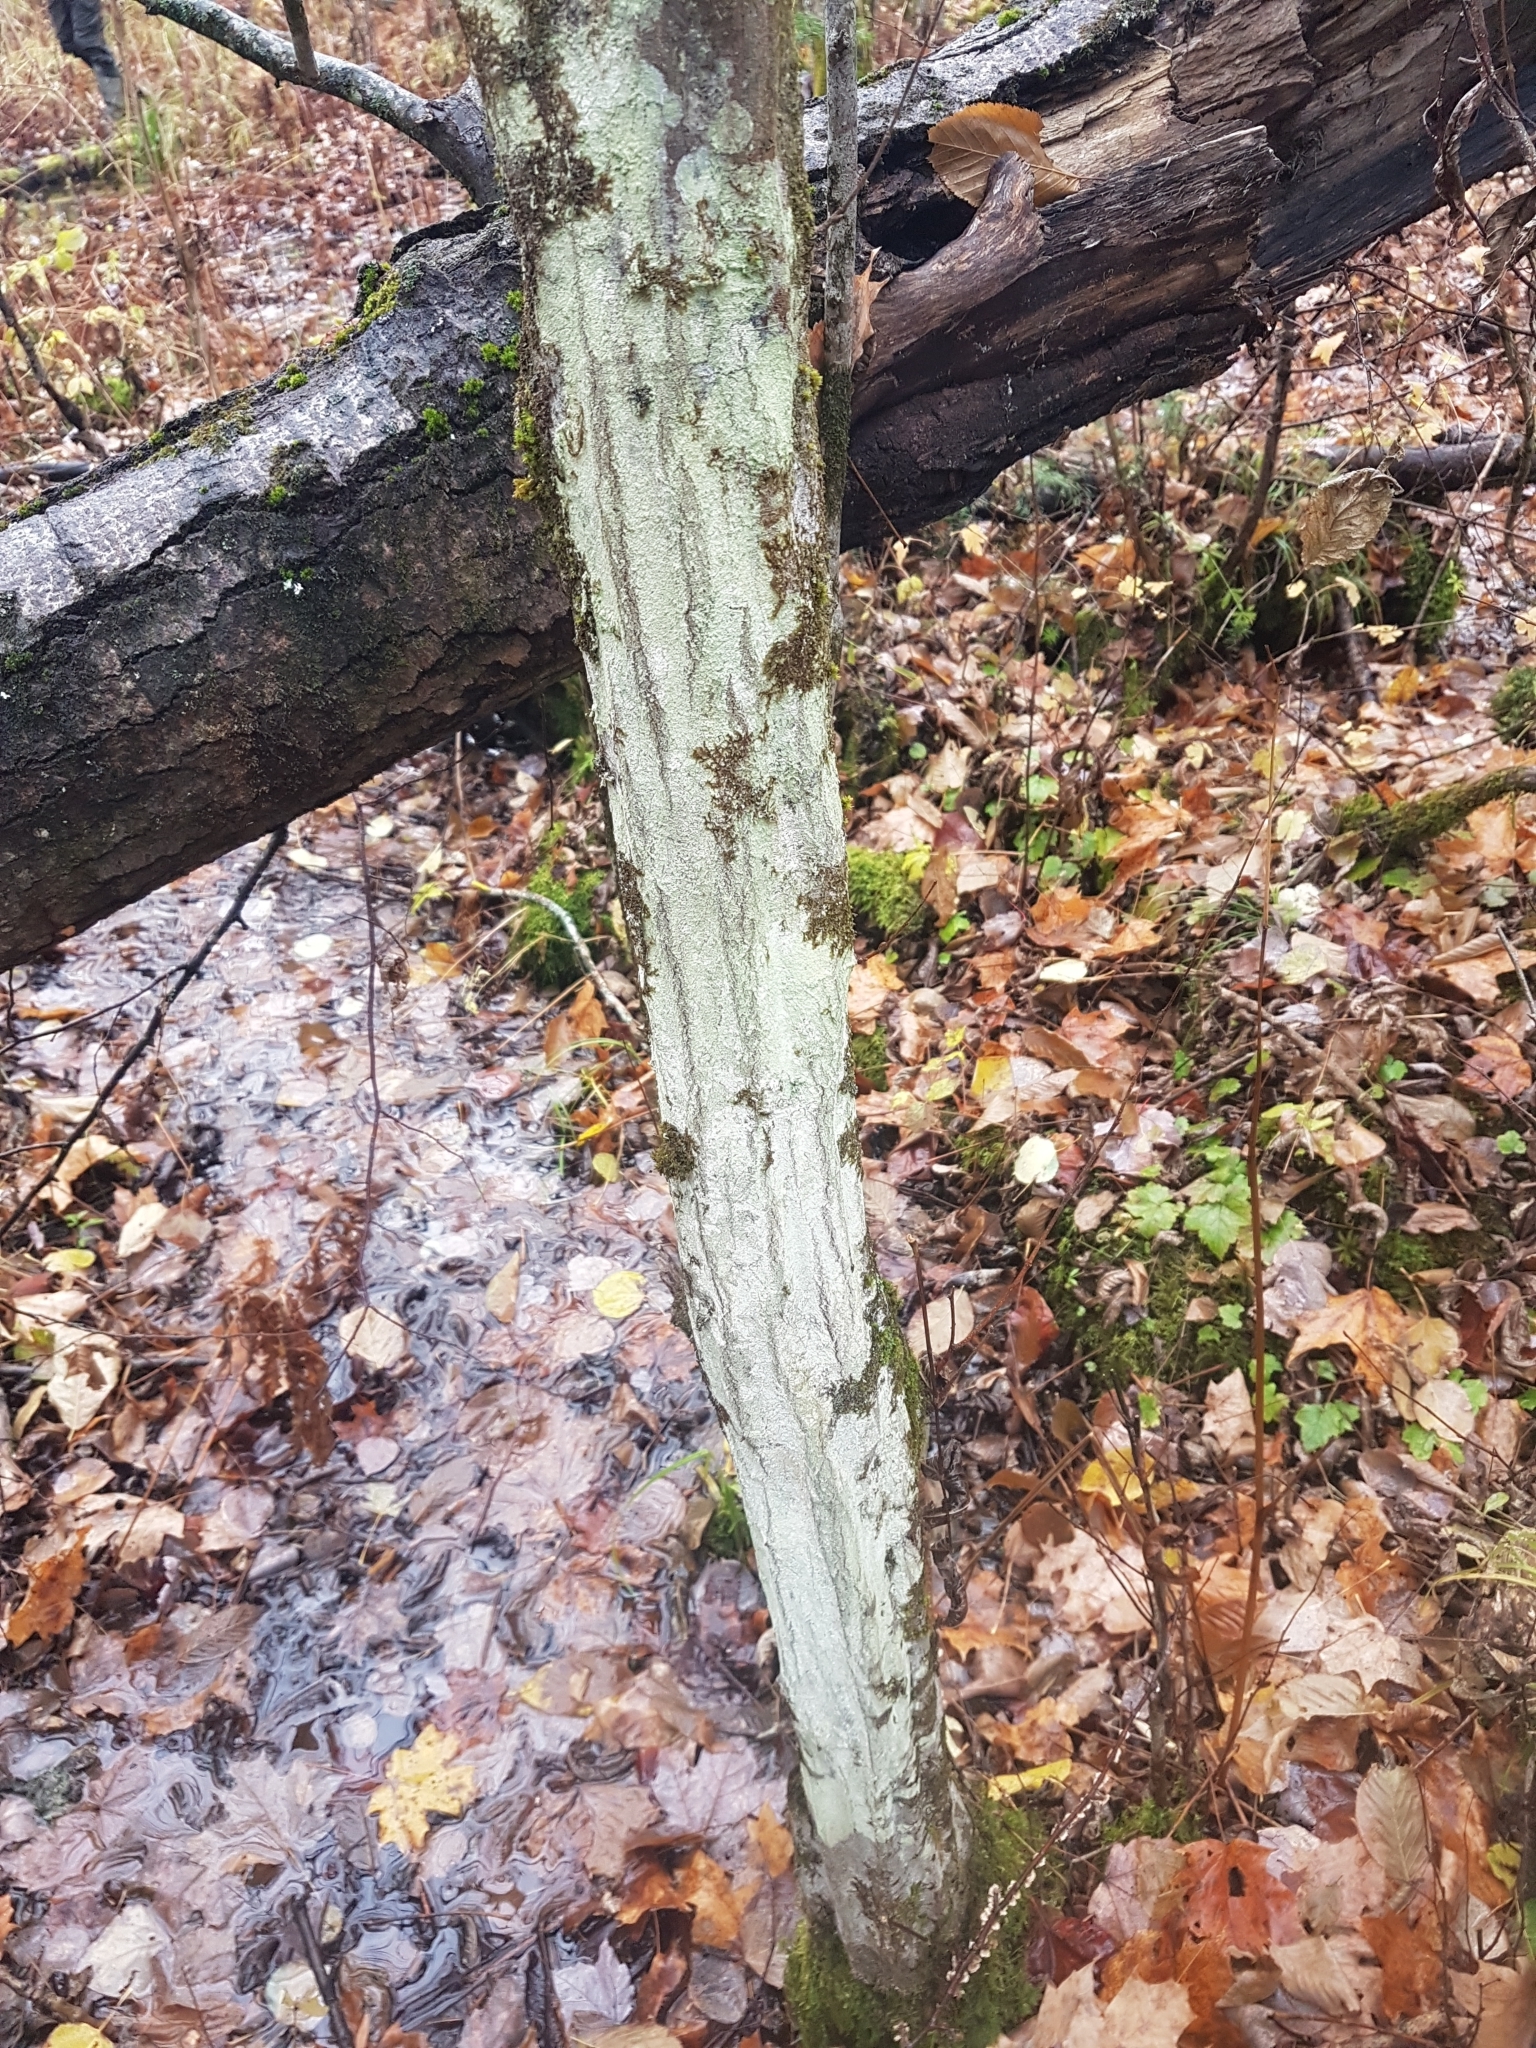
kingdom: Plantae
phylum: Tracheophyta
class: Magnoliopsida
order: Fagales
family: Betulaceae
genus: Carpinus
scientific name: Carpinus caroliniana
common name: American hornbeam
